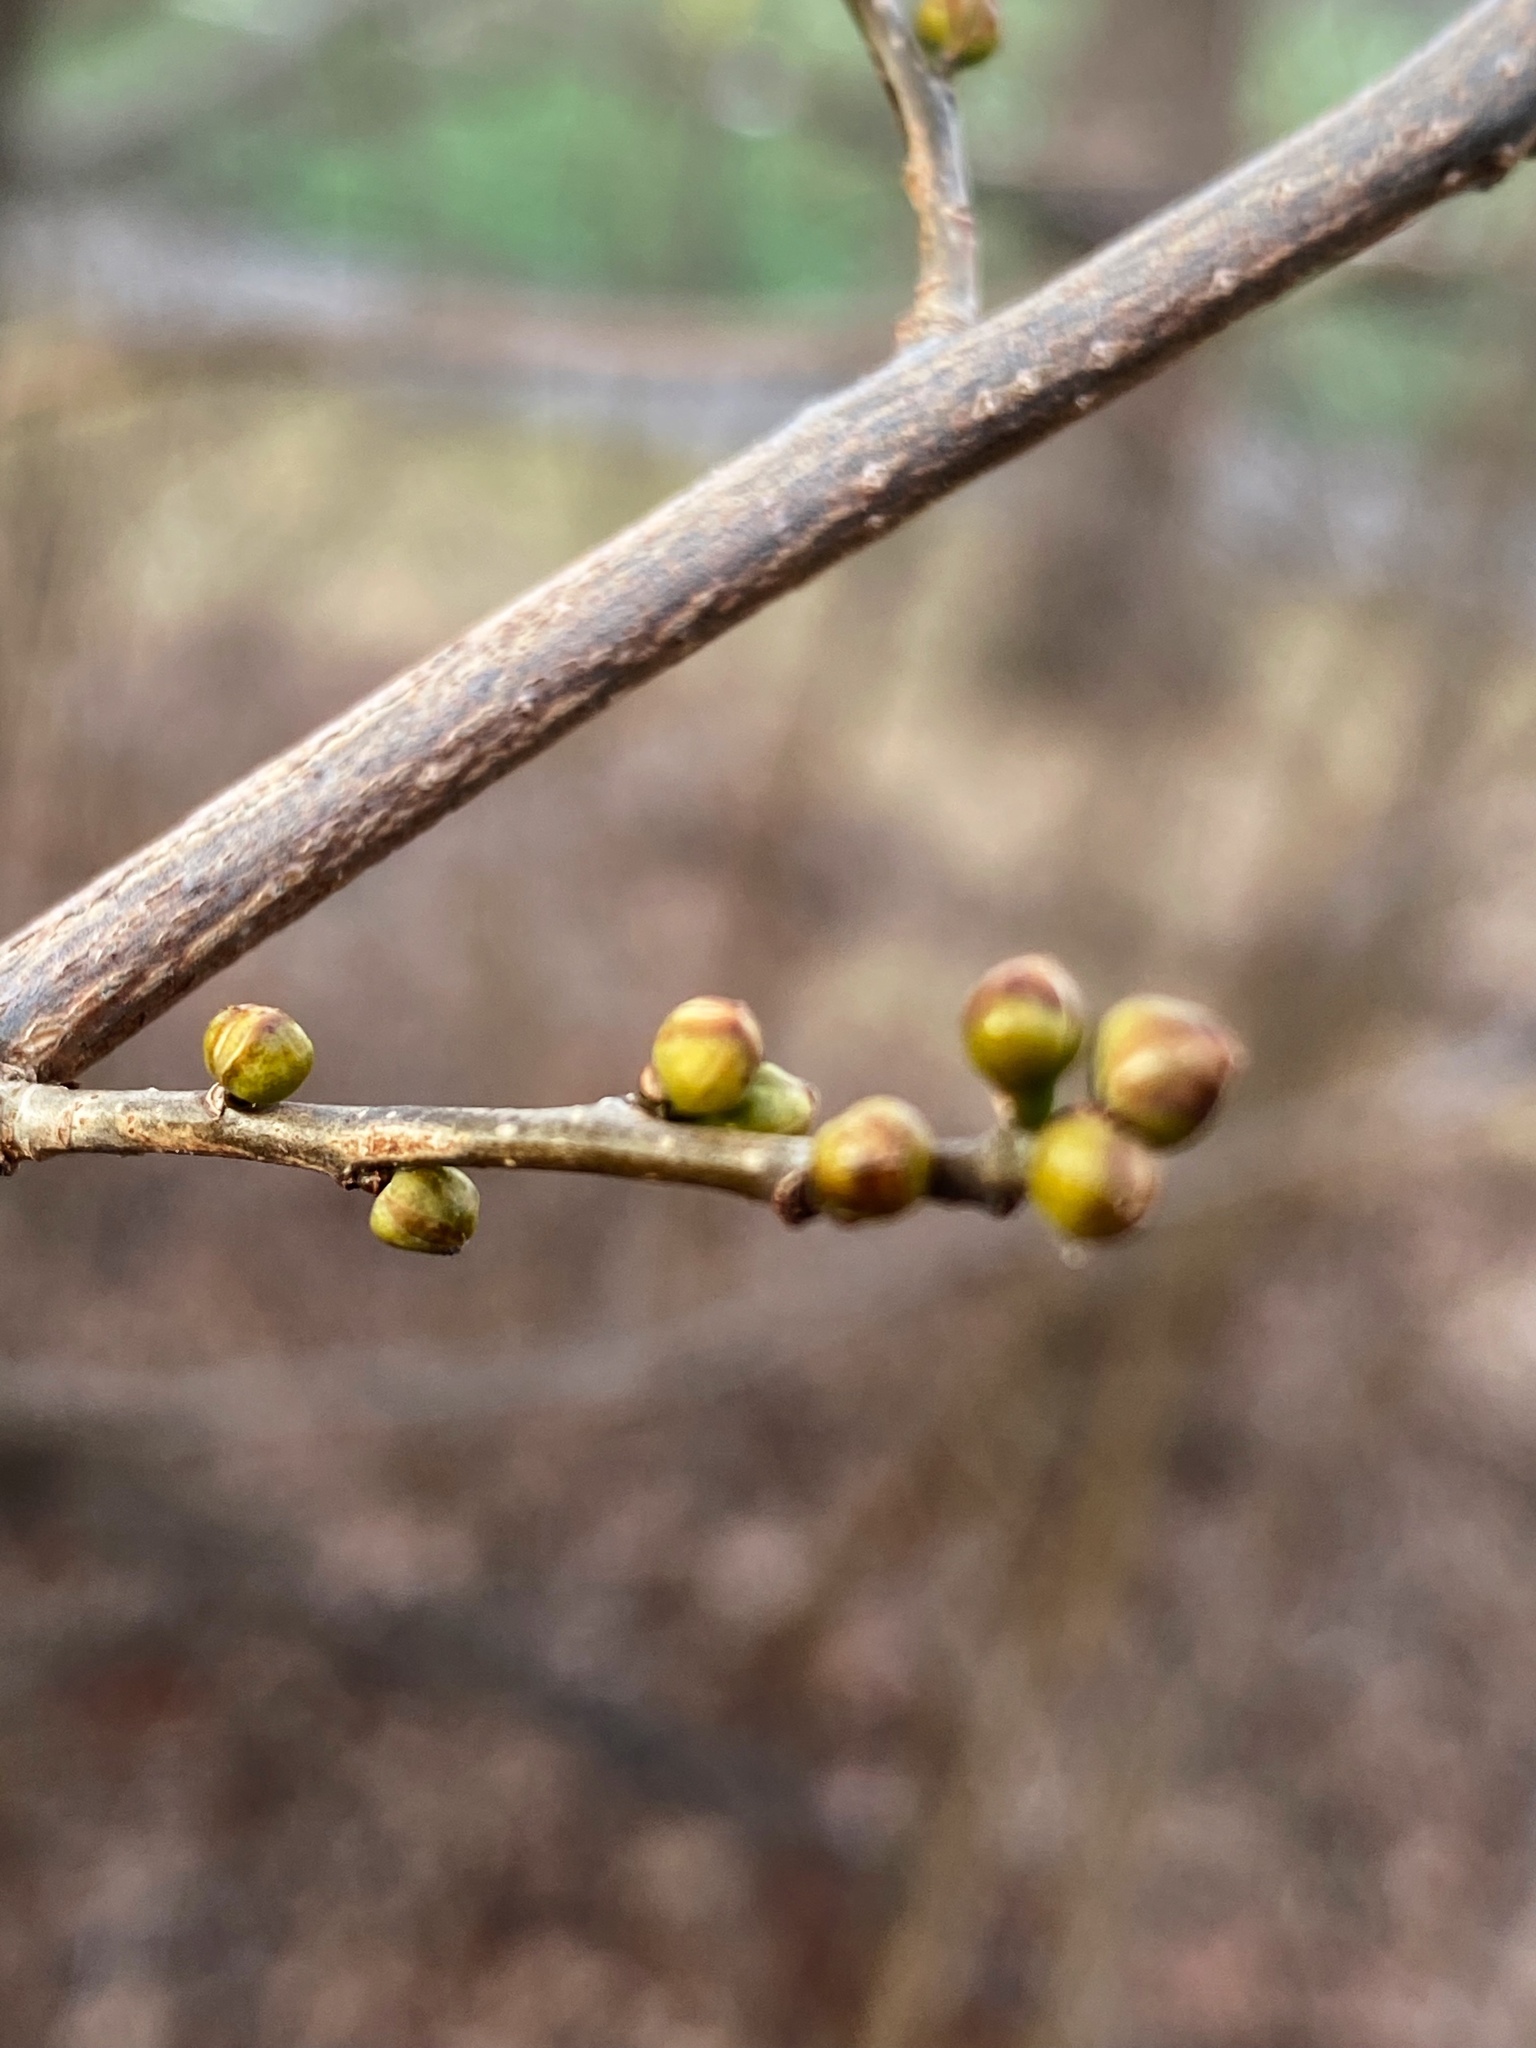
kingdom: Plantae
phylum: Tracheophyta
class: Magnoliopsida
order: Laurales
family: Lauraceae
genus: Lindera
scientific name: Lindera benzoin
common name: Spicebush
